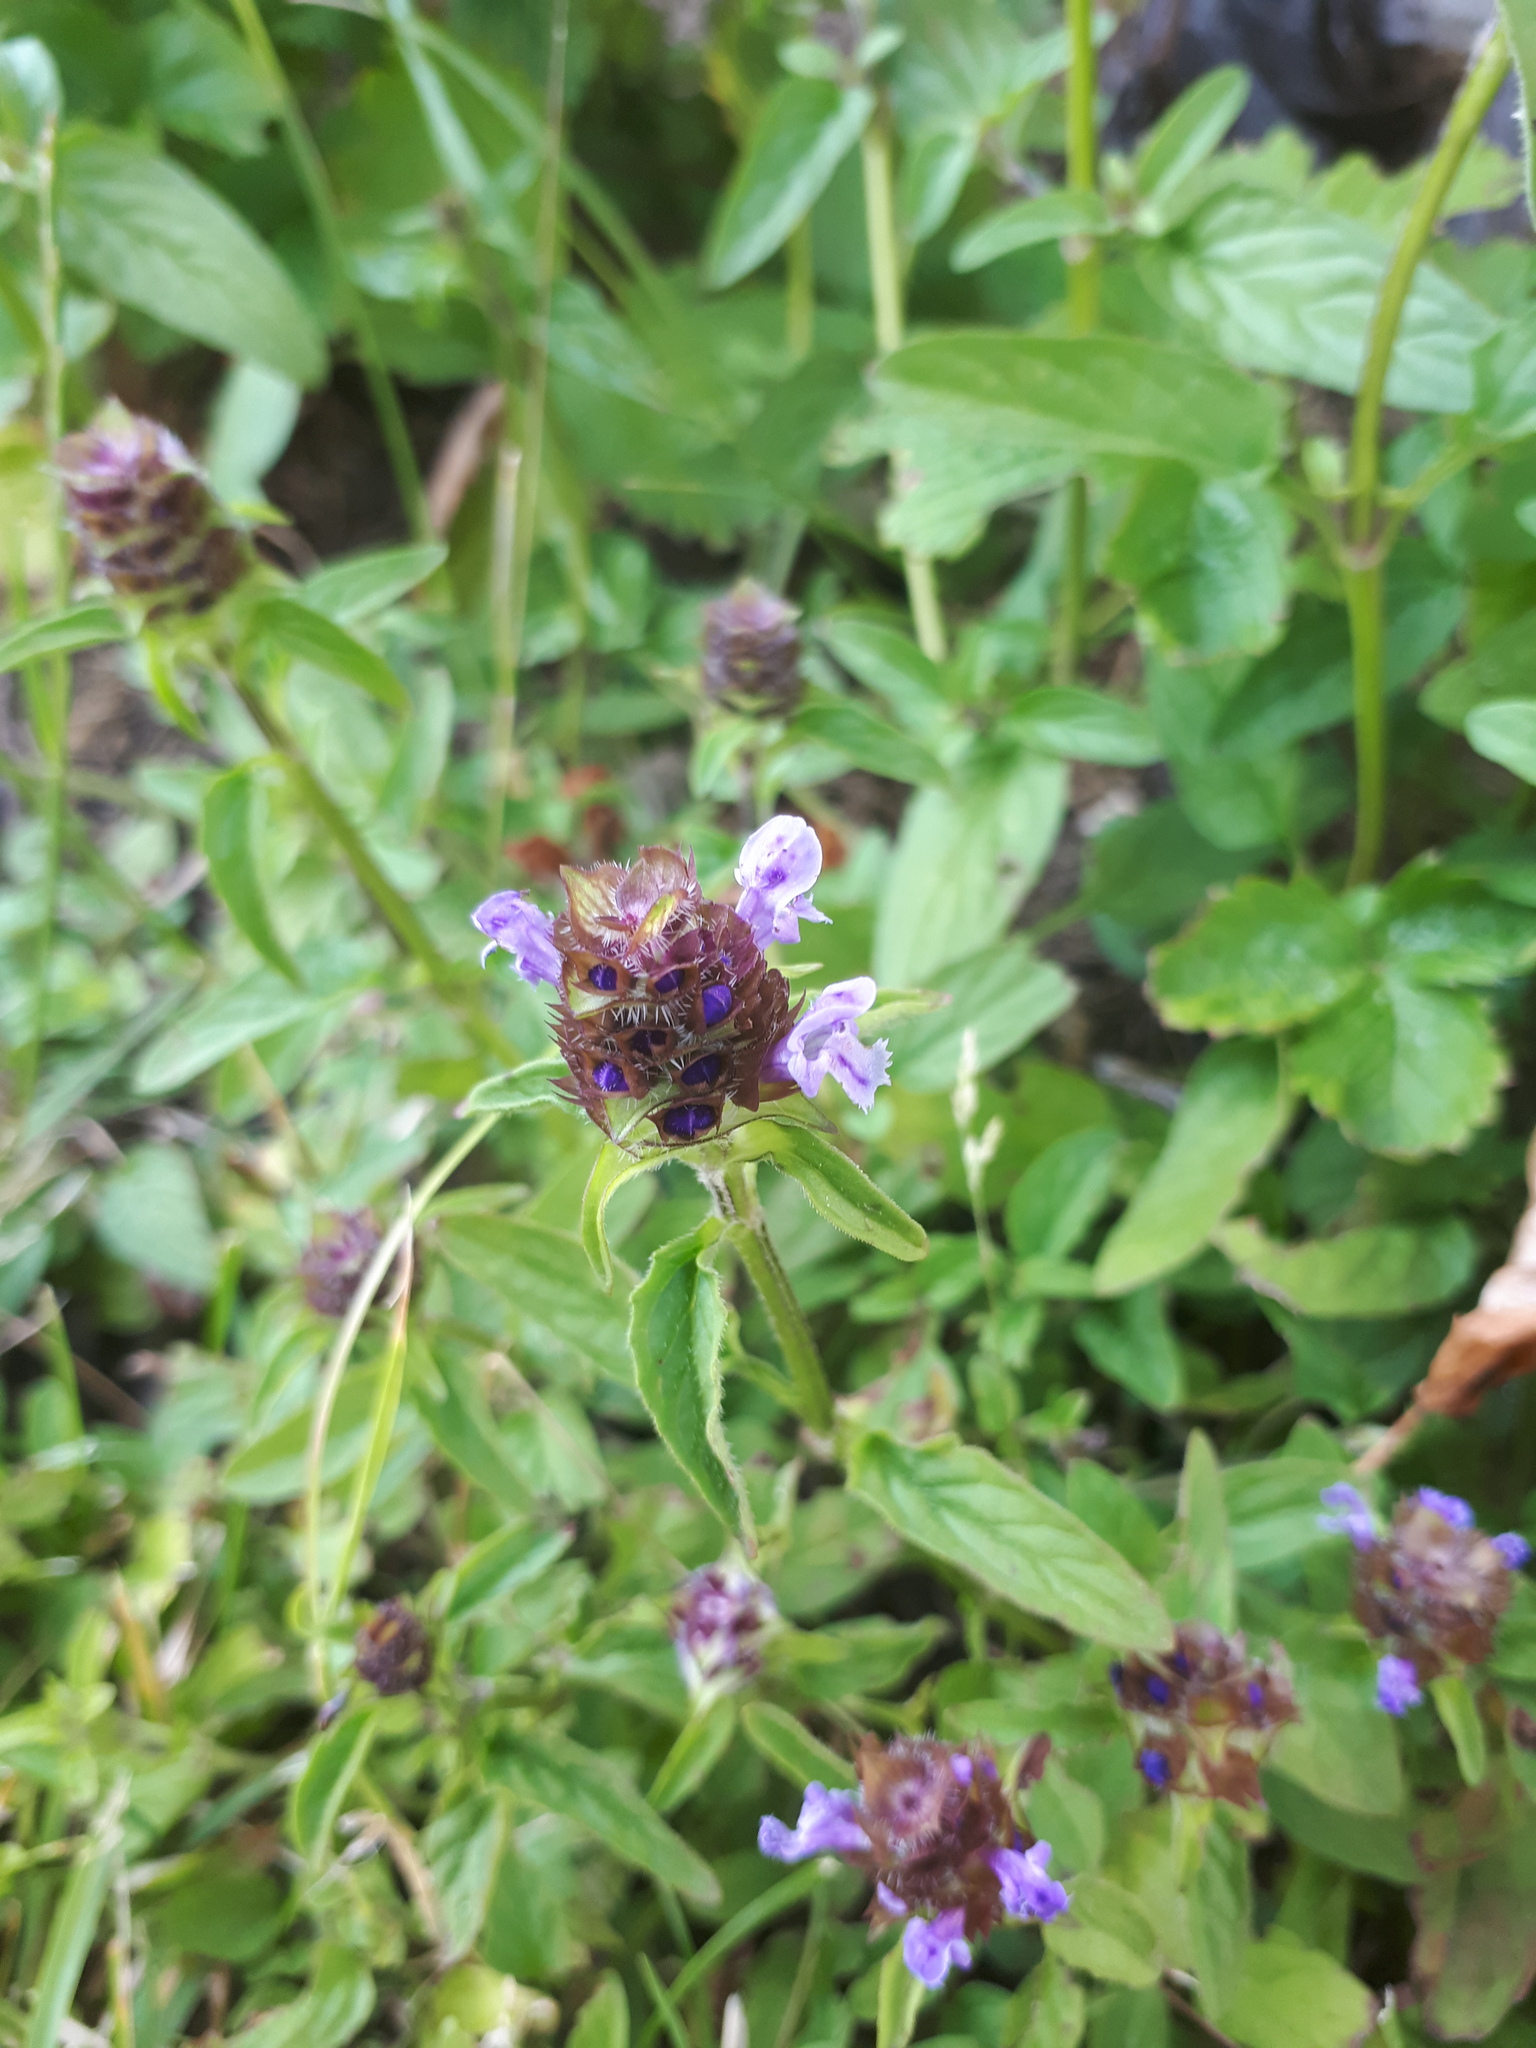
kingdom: Plantae
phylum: Tracheophyta
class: Magnoliopsida
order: Lamiales
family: Lamiaceae
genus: Prunella
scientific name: Prunella vulgaris
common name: Heal-all
